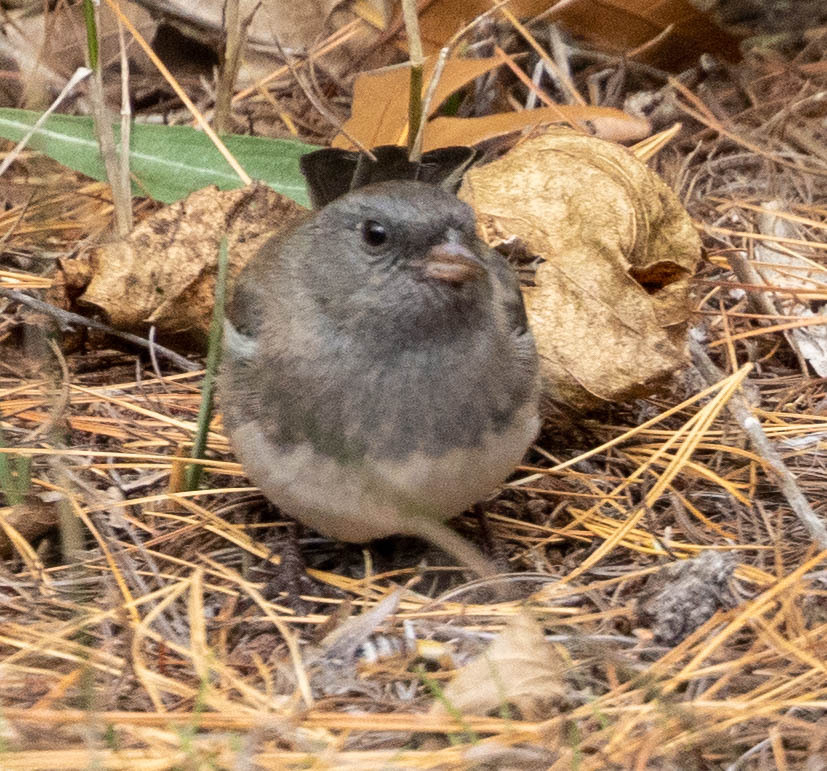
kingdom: Animalia
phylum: Chordata
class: Aves
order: Passeriformes
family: Passerellidae
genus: Junco
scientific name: Junco hyemalis
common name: Dark-eyed junco
